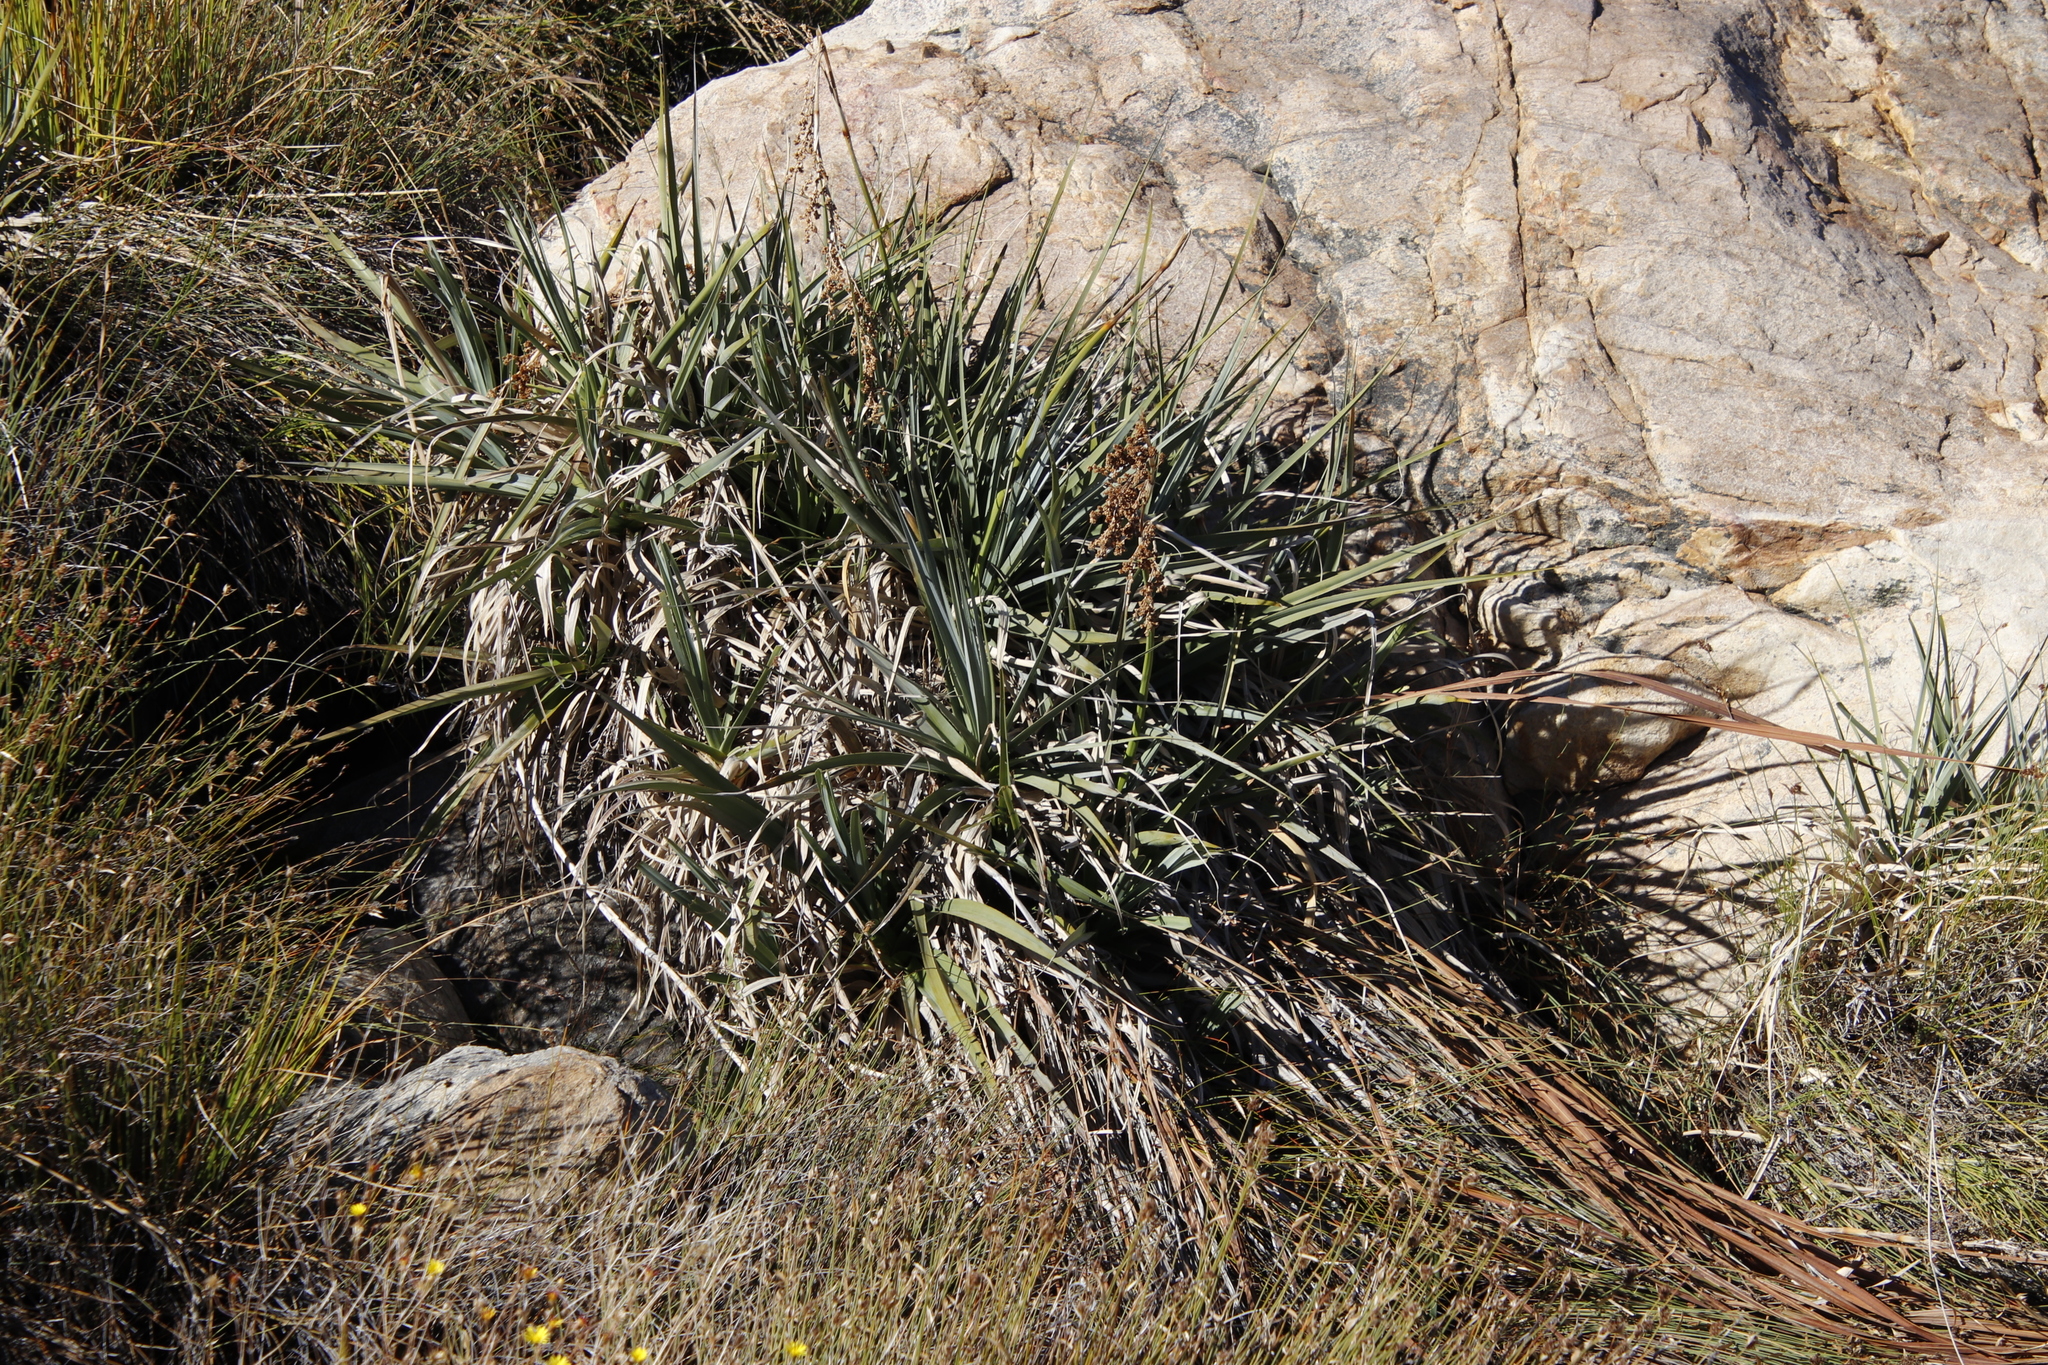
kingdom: Plantae
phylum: Tracheophyta
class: Liliopsida
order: Poales
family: Thurniaceae
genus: Prionium
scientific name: Prionium serratum
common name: Palmiet
